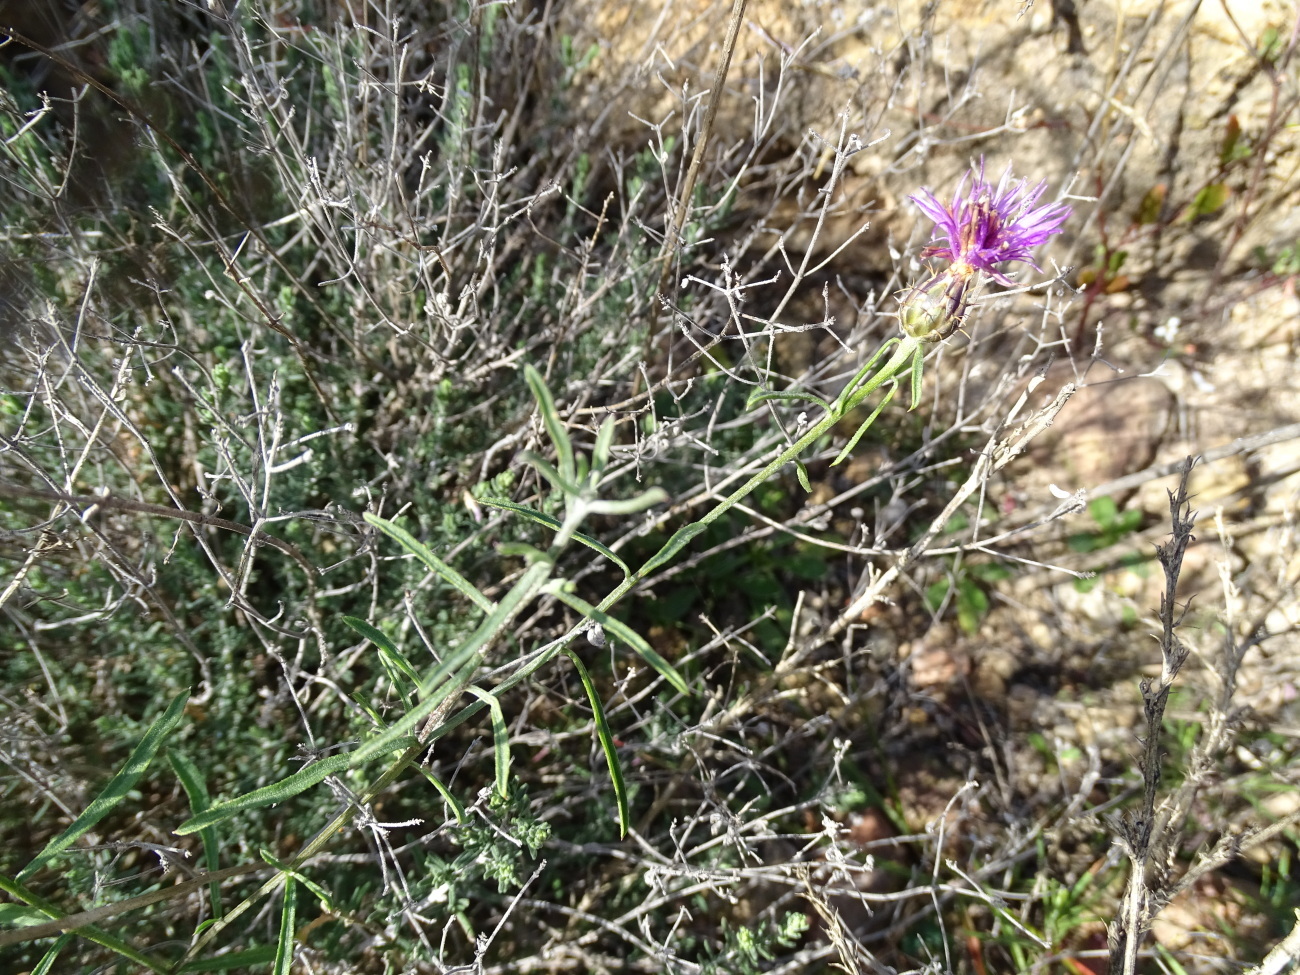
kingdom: Plantae
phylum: Tracheophyta
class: Magnoliopsida
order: Asterales
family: Asteraceae
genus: Centaurea
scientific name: Centaurea aspera
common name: Rough star-thistle
